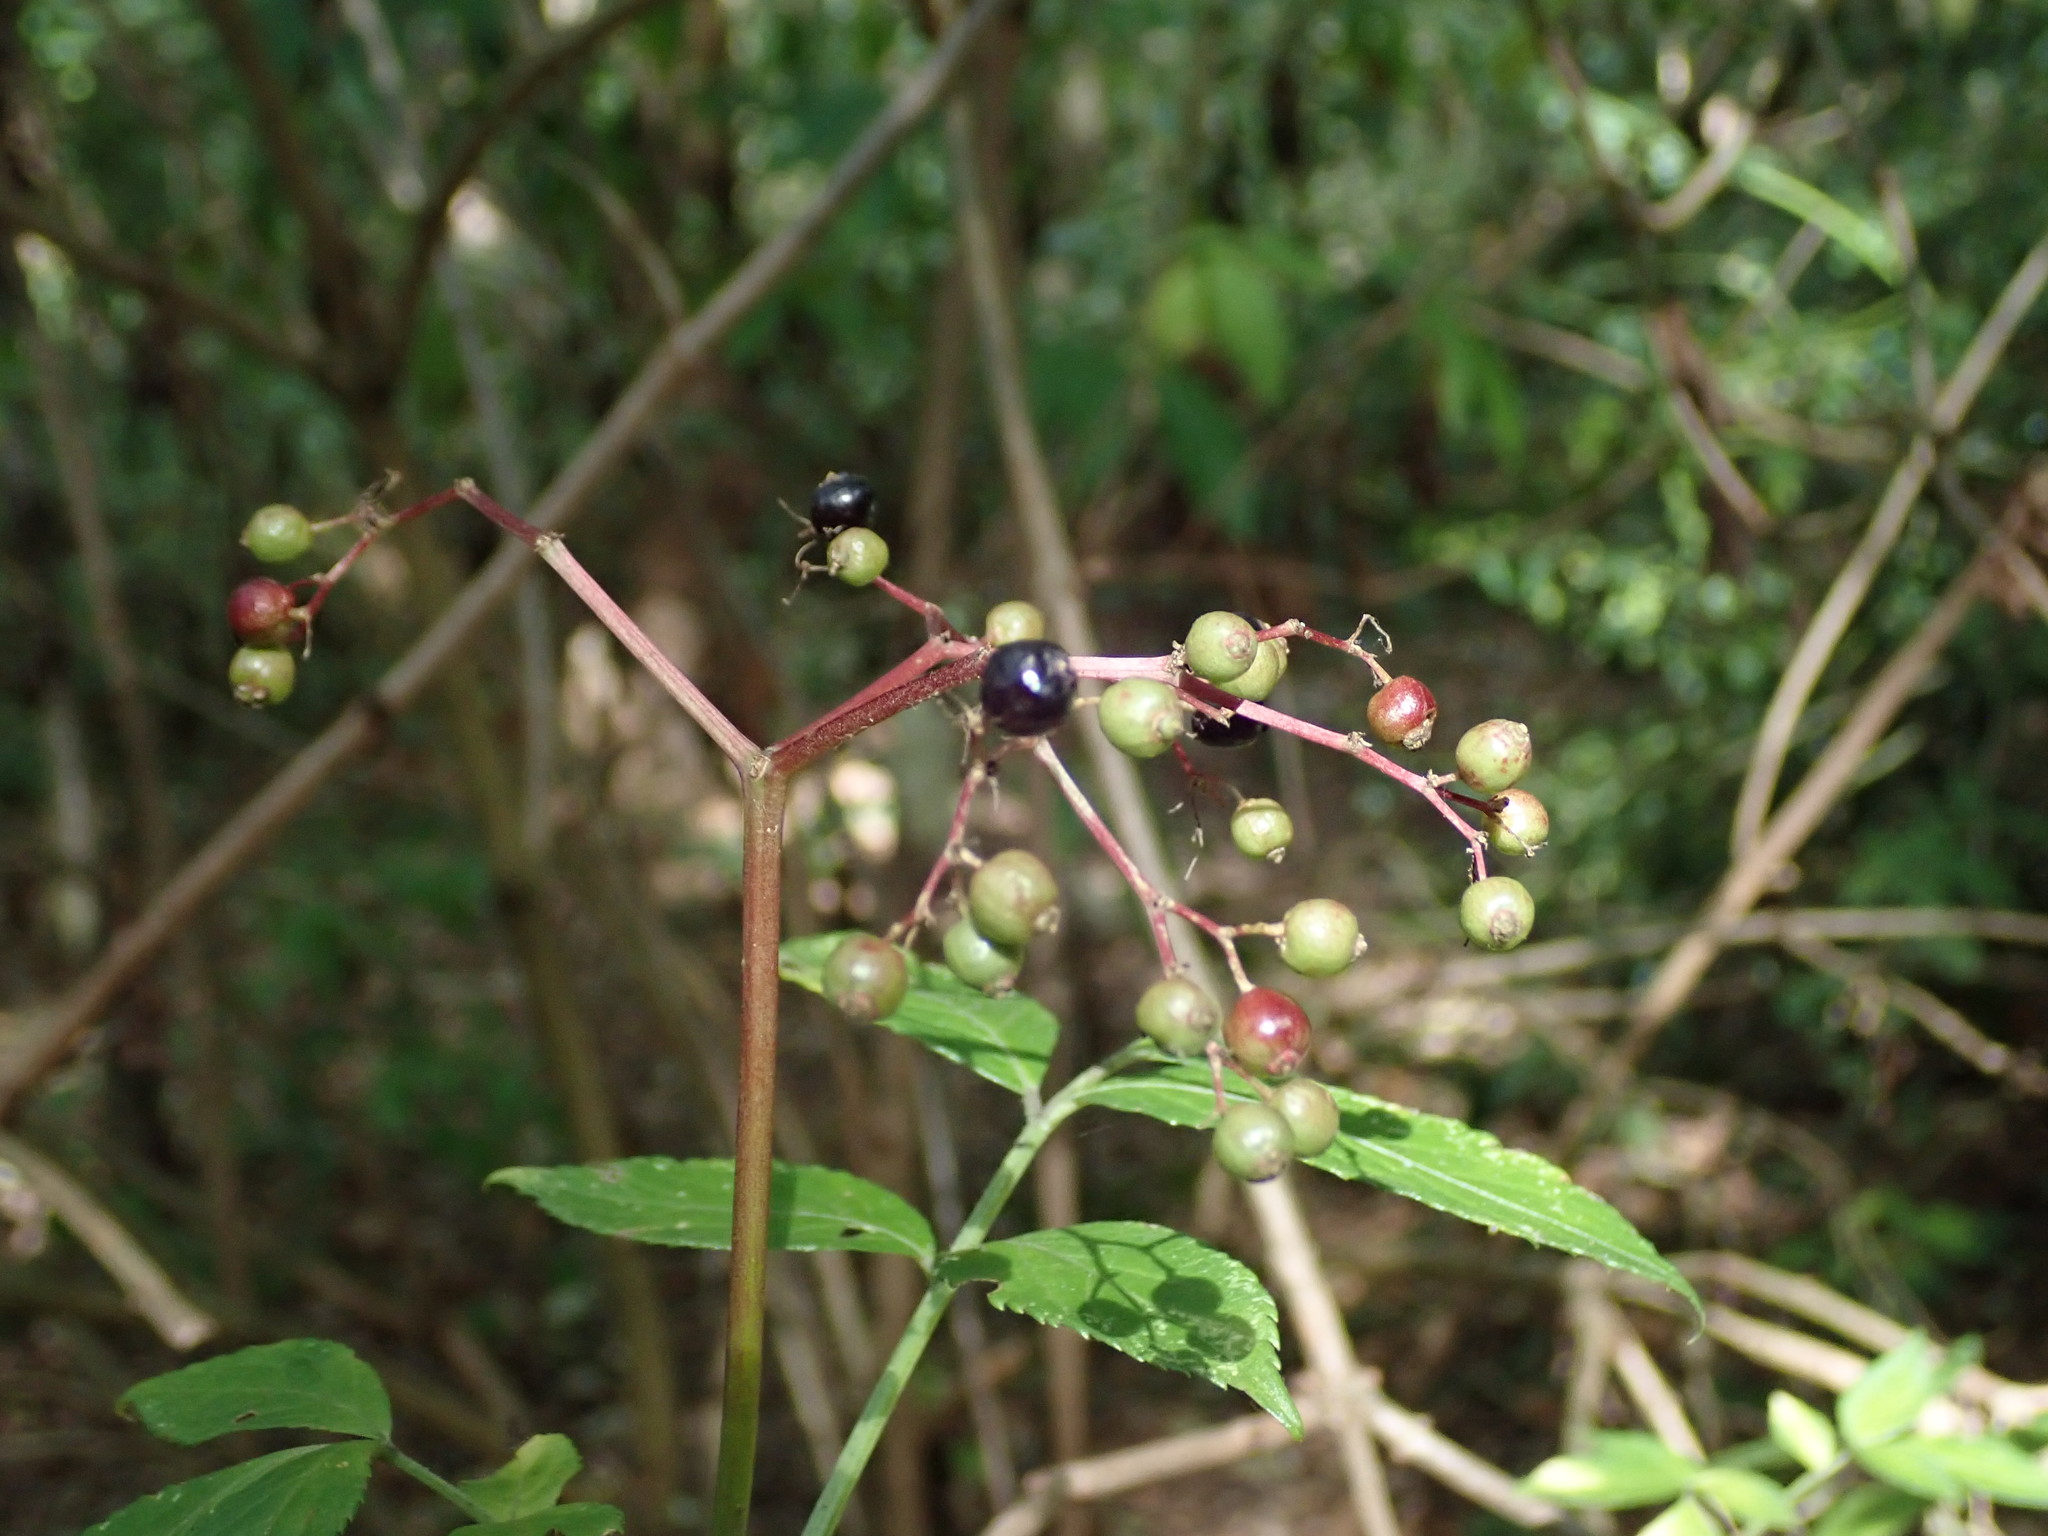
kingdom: Plantae
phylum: Tracheophyta
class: Magnoliopsida
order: Dipsacales
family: Viburnaceae
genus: Sambucus
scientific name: Sambucus nigra
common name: Elder
